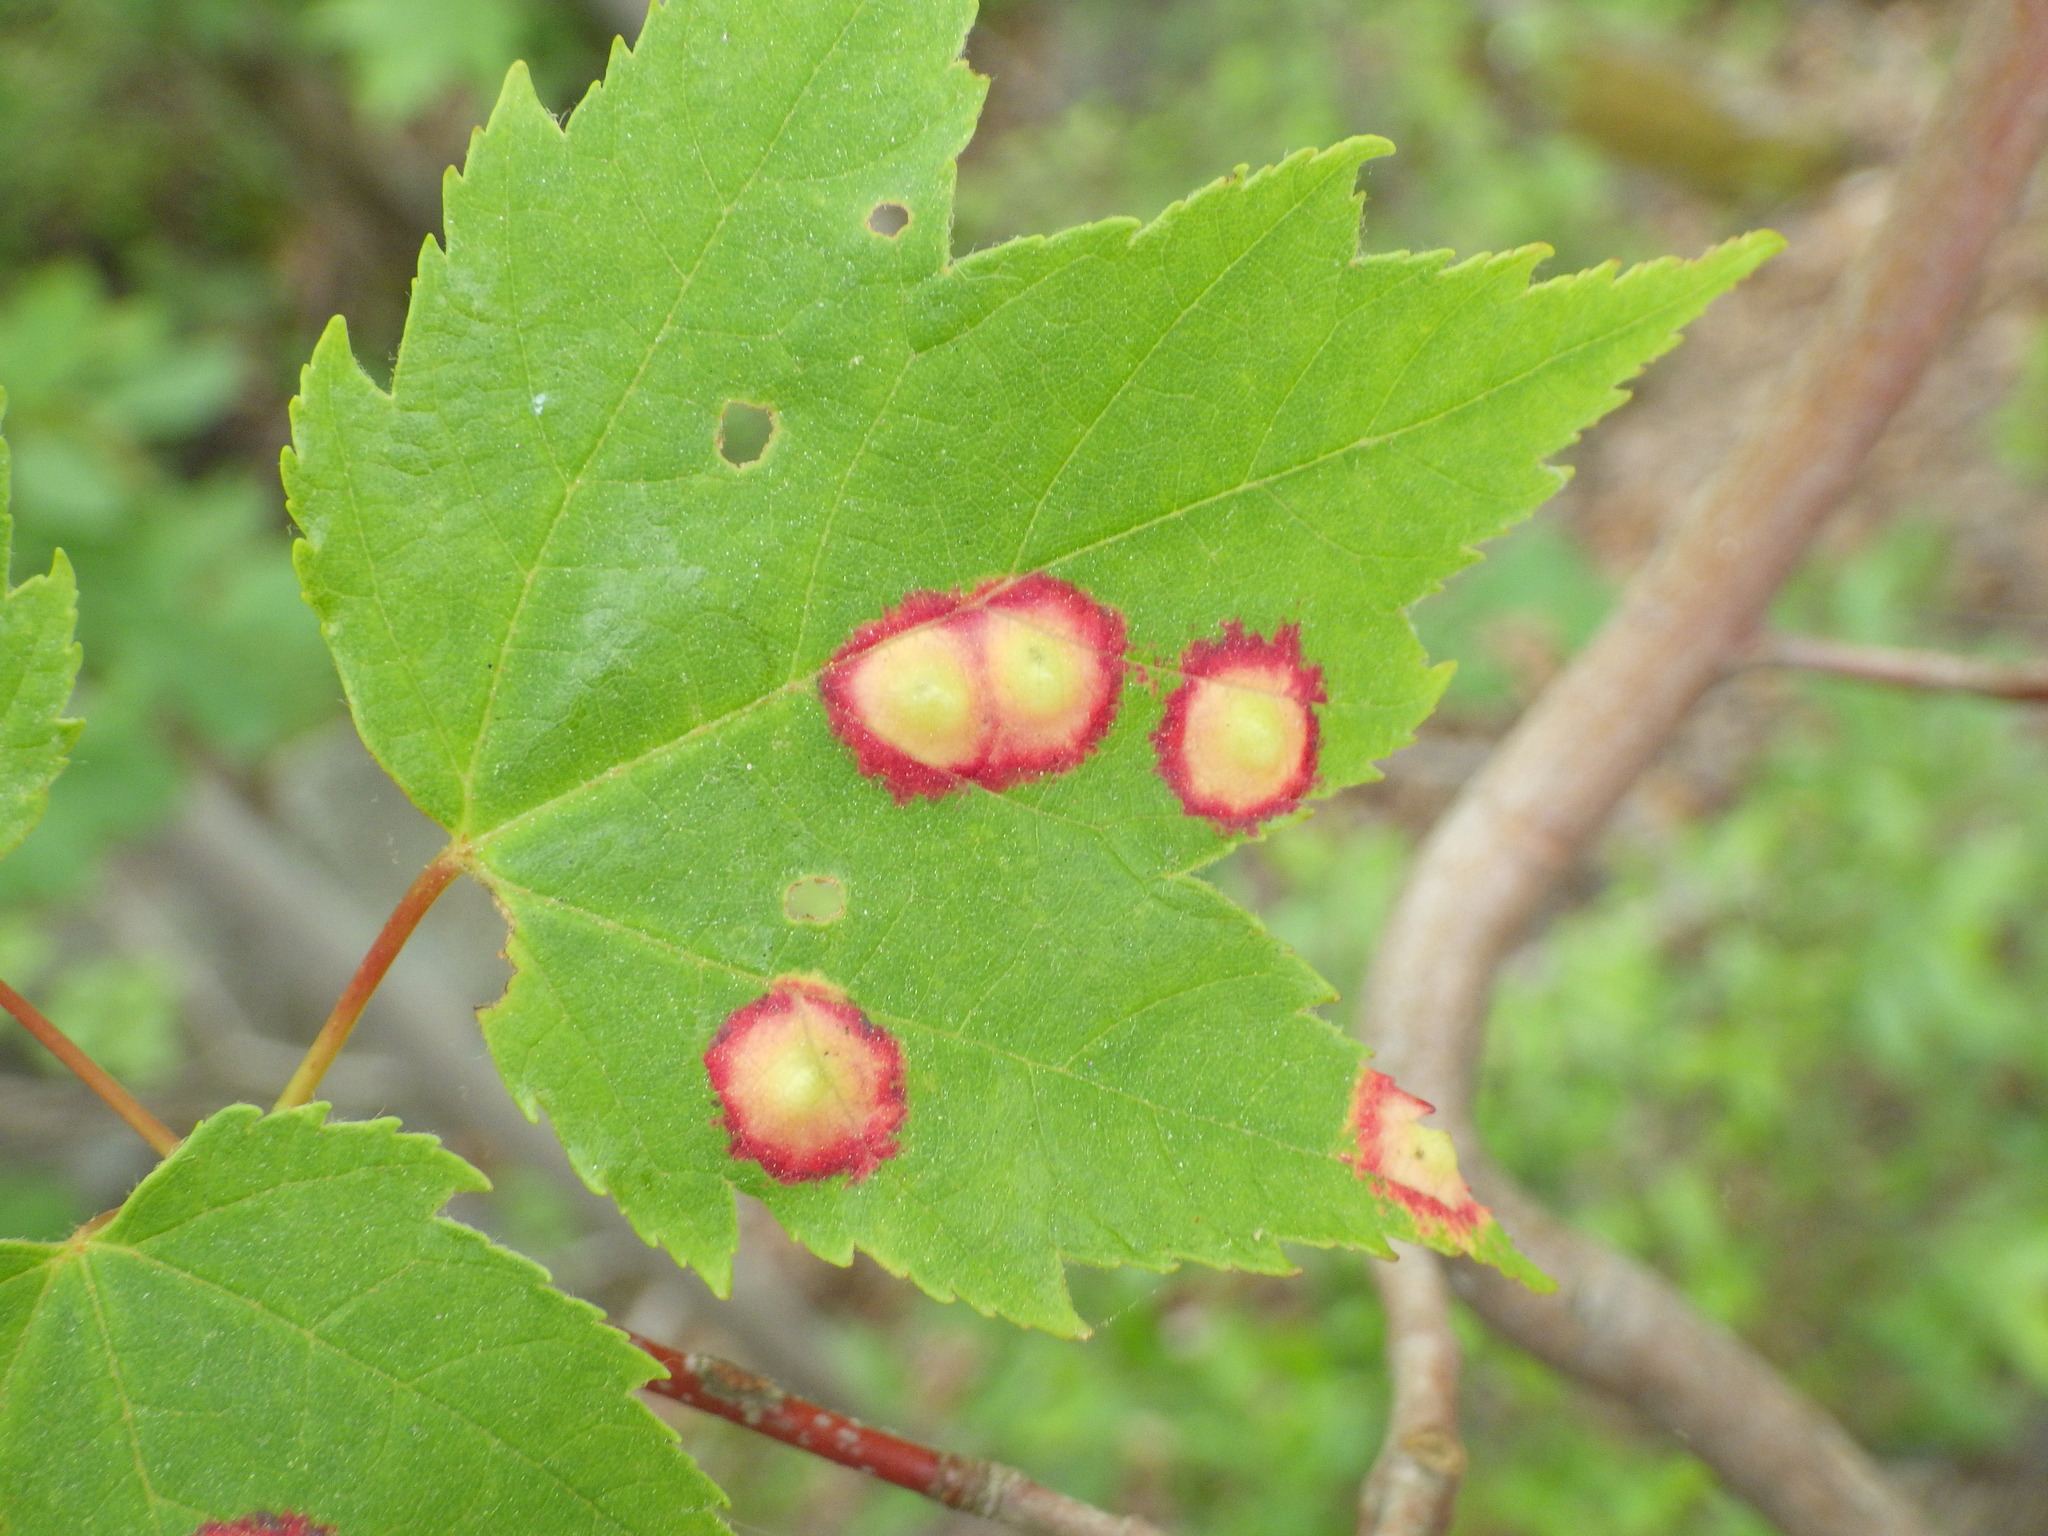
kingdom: Animalia
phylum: Arthropoda
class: Insecta
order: Diptera
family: Cecidomyiidae
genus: Acericecis
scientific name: Acericecis ocellaris
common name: Ocellate gall midge
